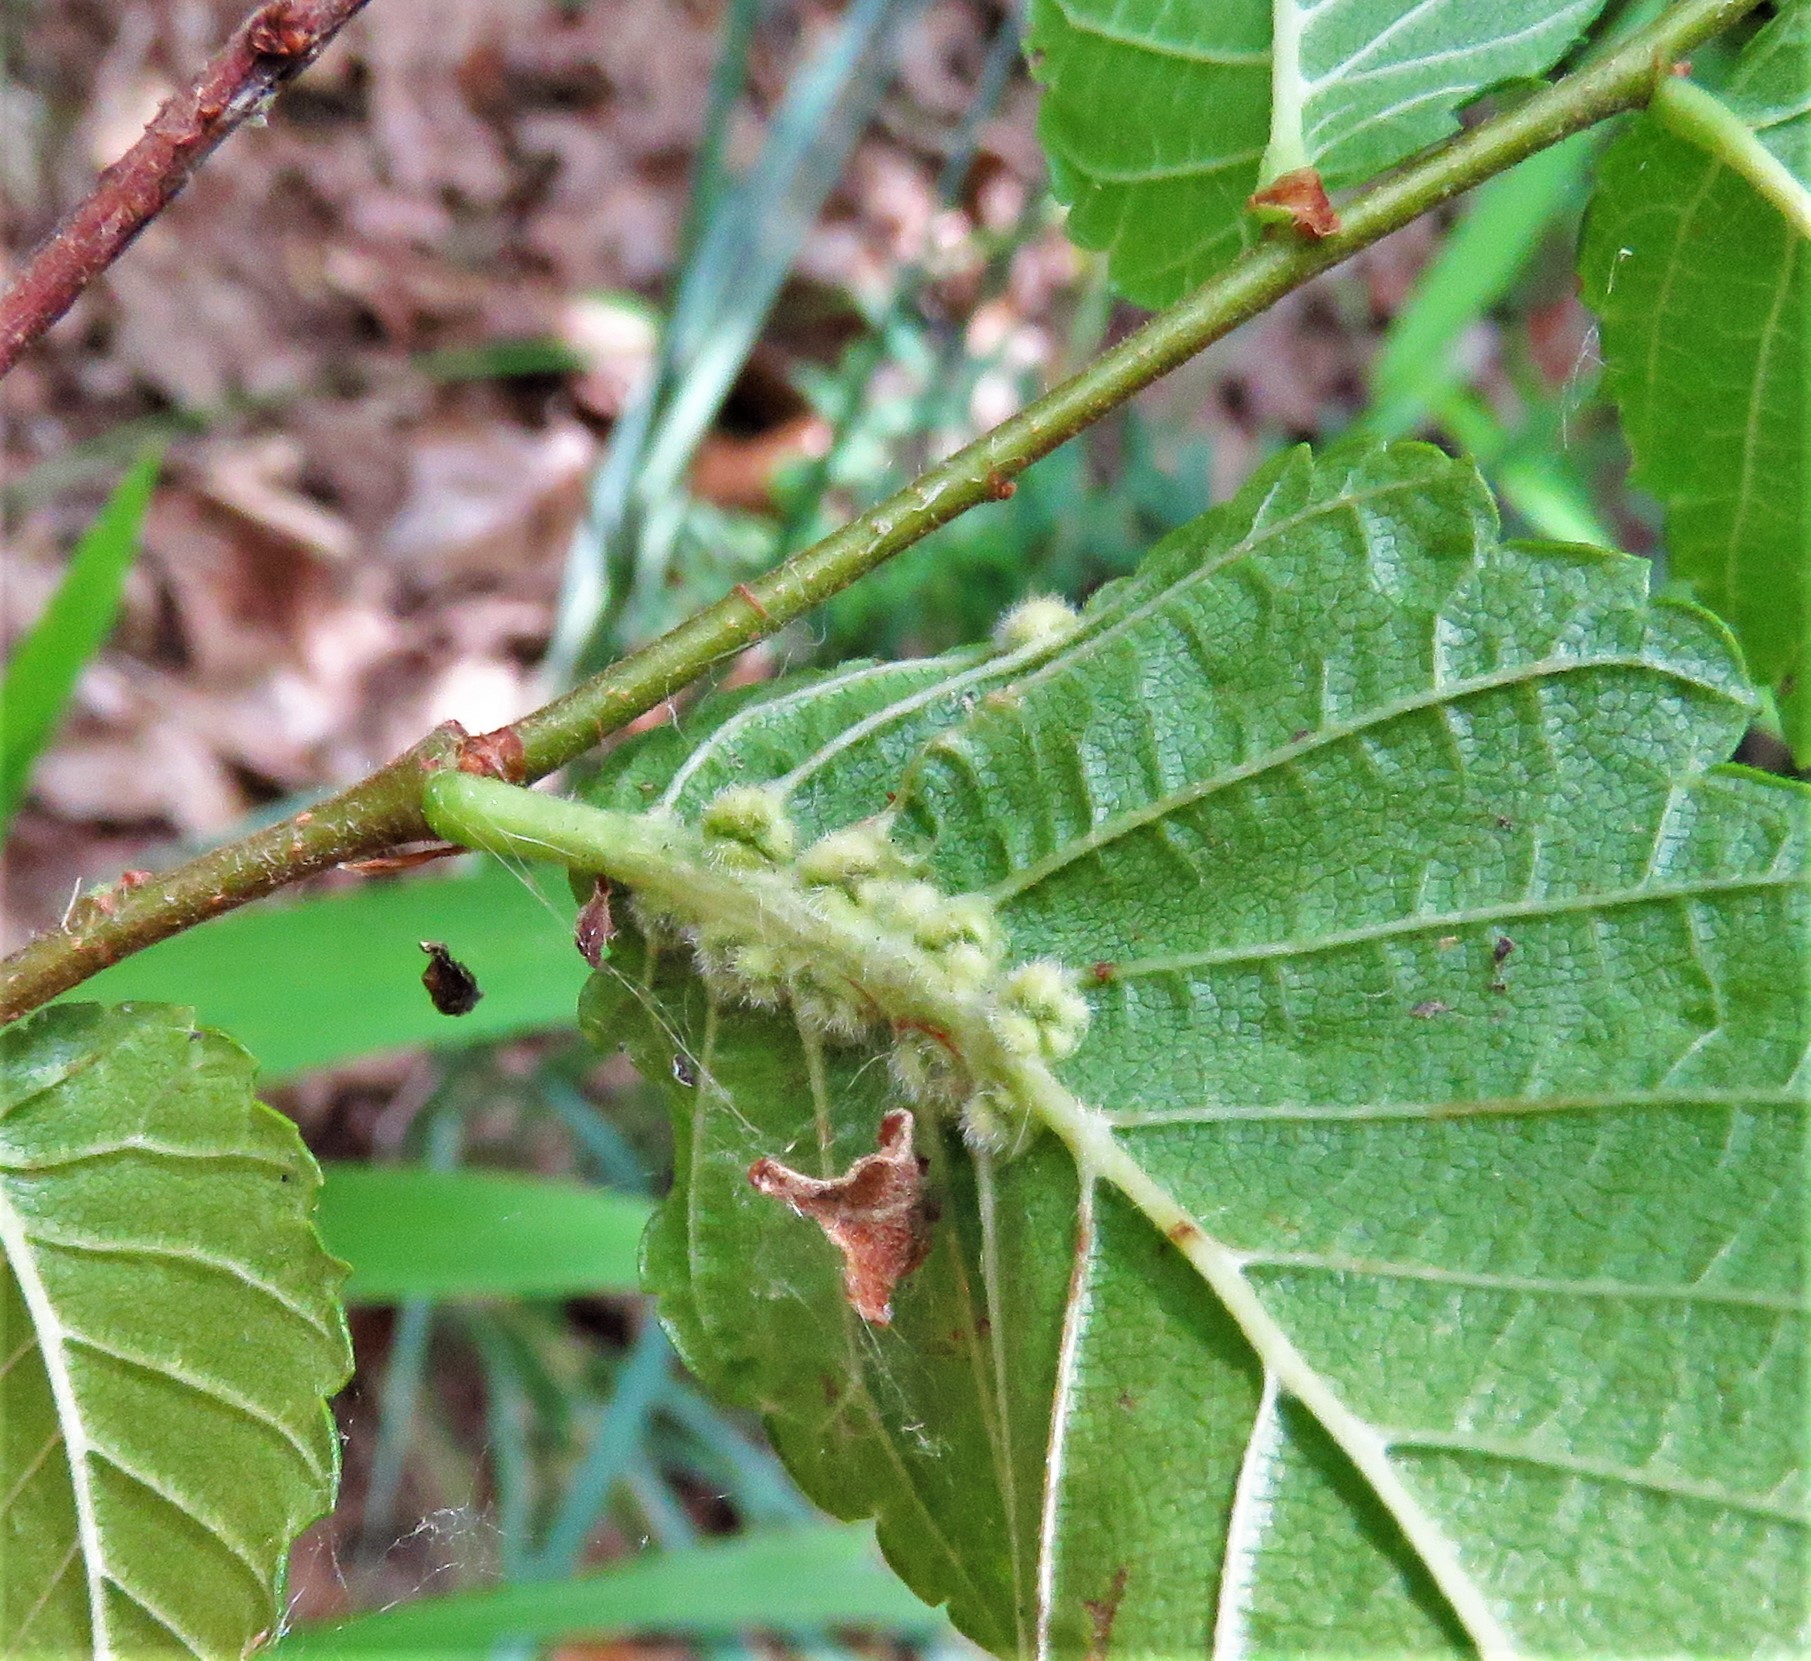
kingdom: Animalia
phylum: Arthropoda
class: Arachnida
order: Trombidiformes
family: Eriophyidae
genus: Aceria
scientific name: Aceria
